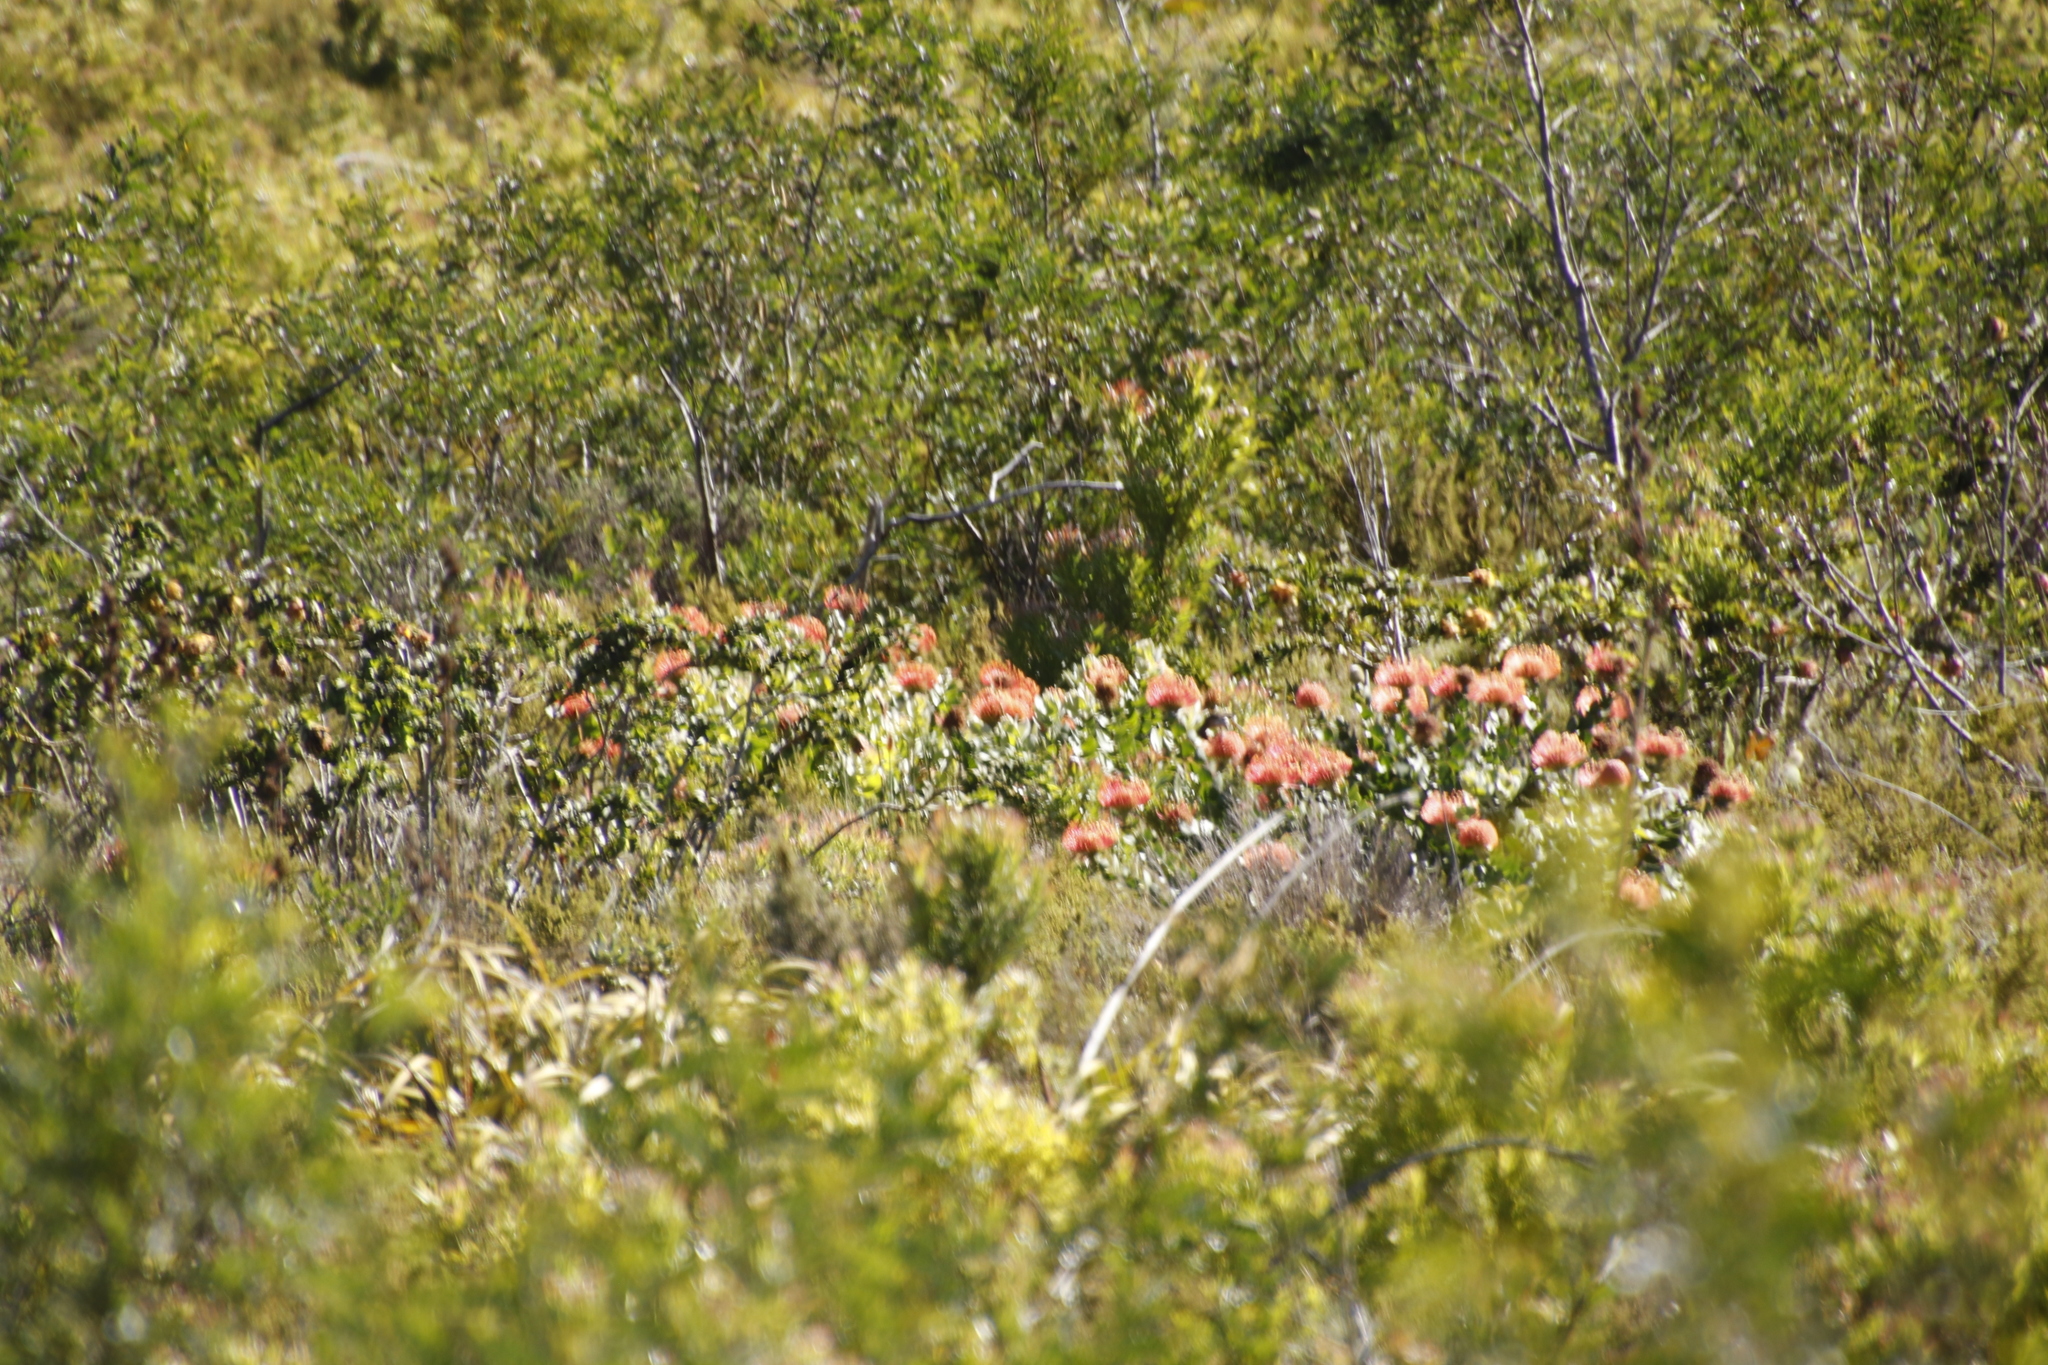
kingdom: Plantae
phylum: Tracheophyta
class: Magnoliopsida
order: Proteales
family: Proteaceae
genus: Leucospermum
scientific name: Leucospermum cordifolium
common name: Red pincushion-protea
